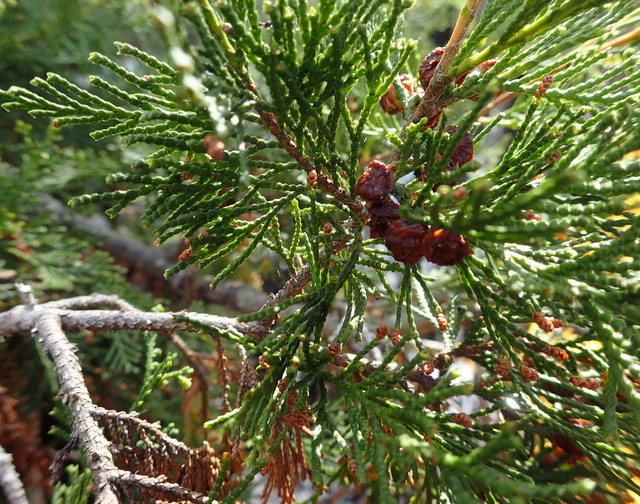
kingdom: Plantae
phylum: Tracheophyta
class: Pinopsida
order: Pinales
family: Cupressaceae
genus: Chamaecyparis
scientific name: Chamaecyparis thyoides
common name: Atlantic white cedar
